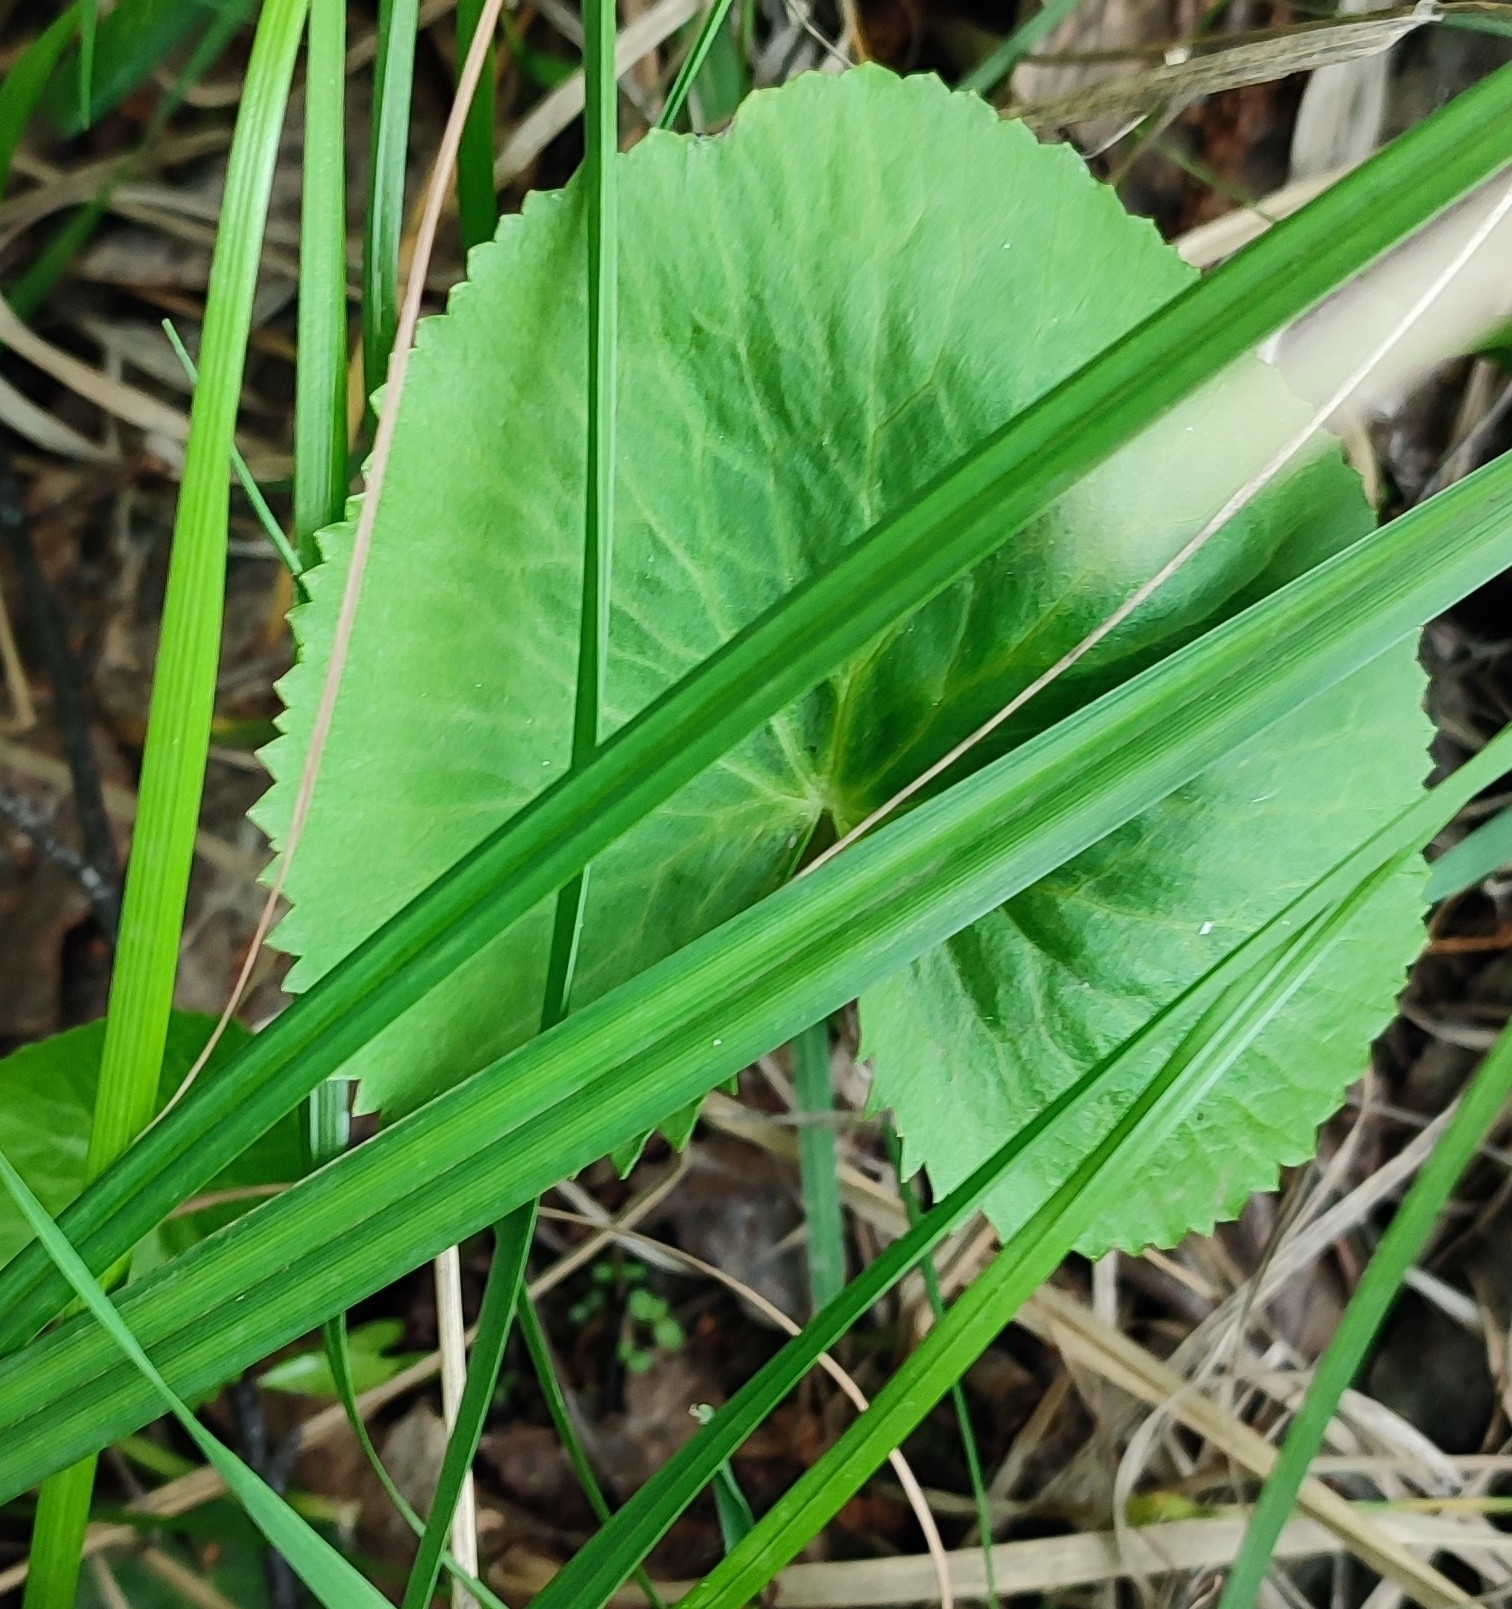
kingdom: Plantae
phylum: Tracheophyta
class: Magnoliopsida
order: Ranunculales
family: Ranunculaceae
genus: Caltha
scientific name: Caltha palustris
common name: Marsh marigold
